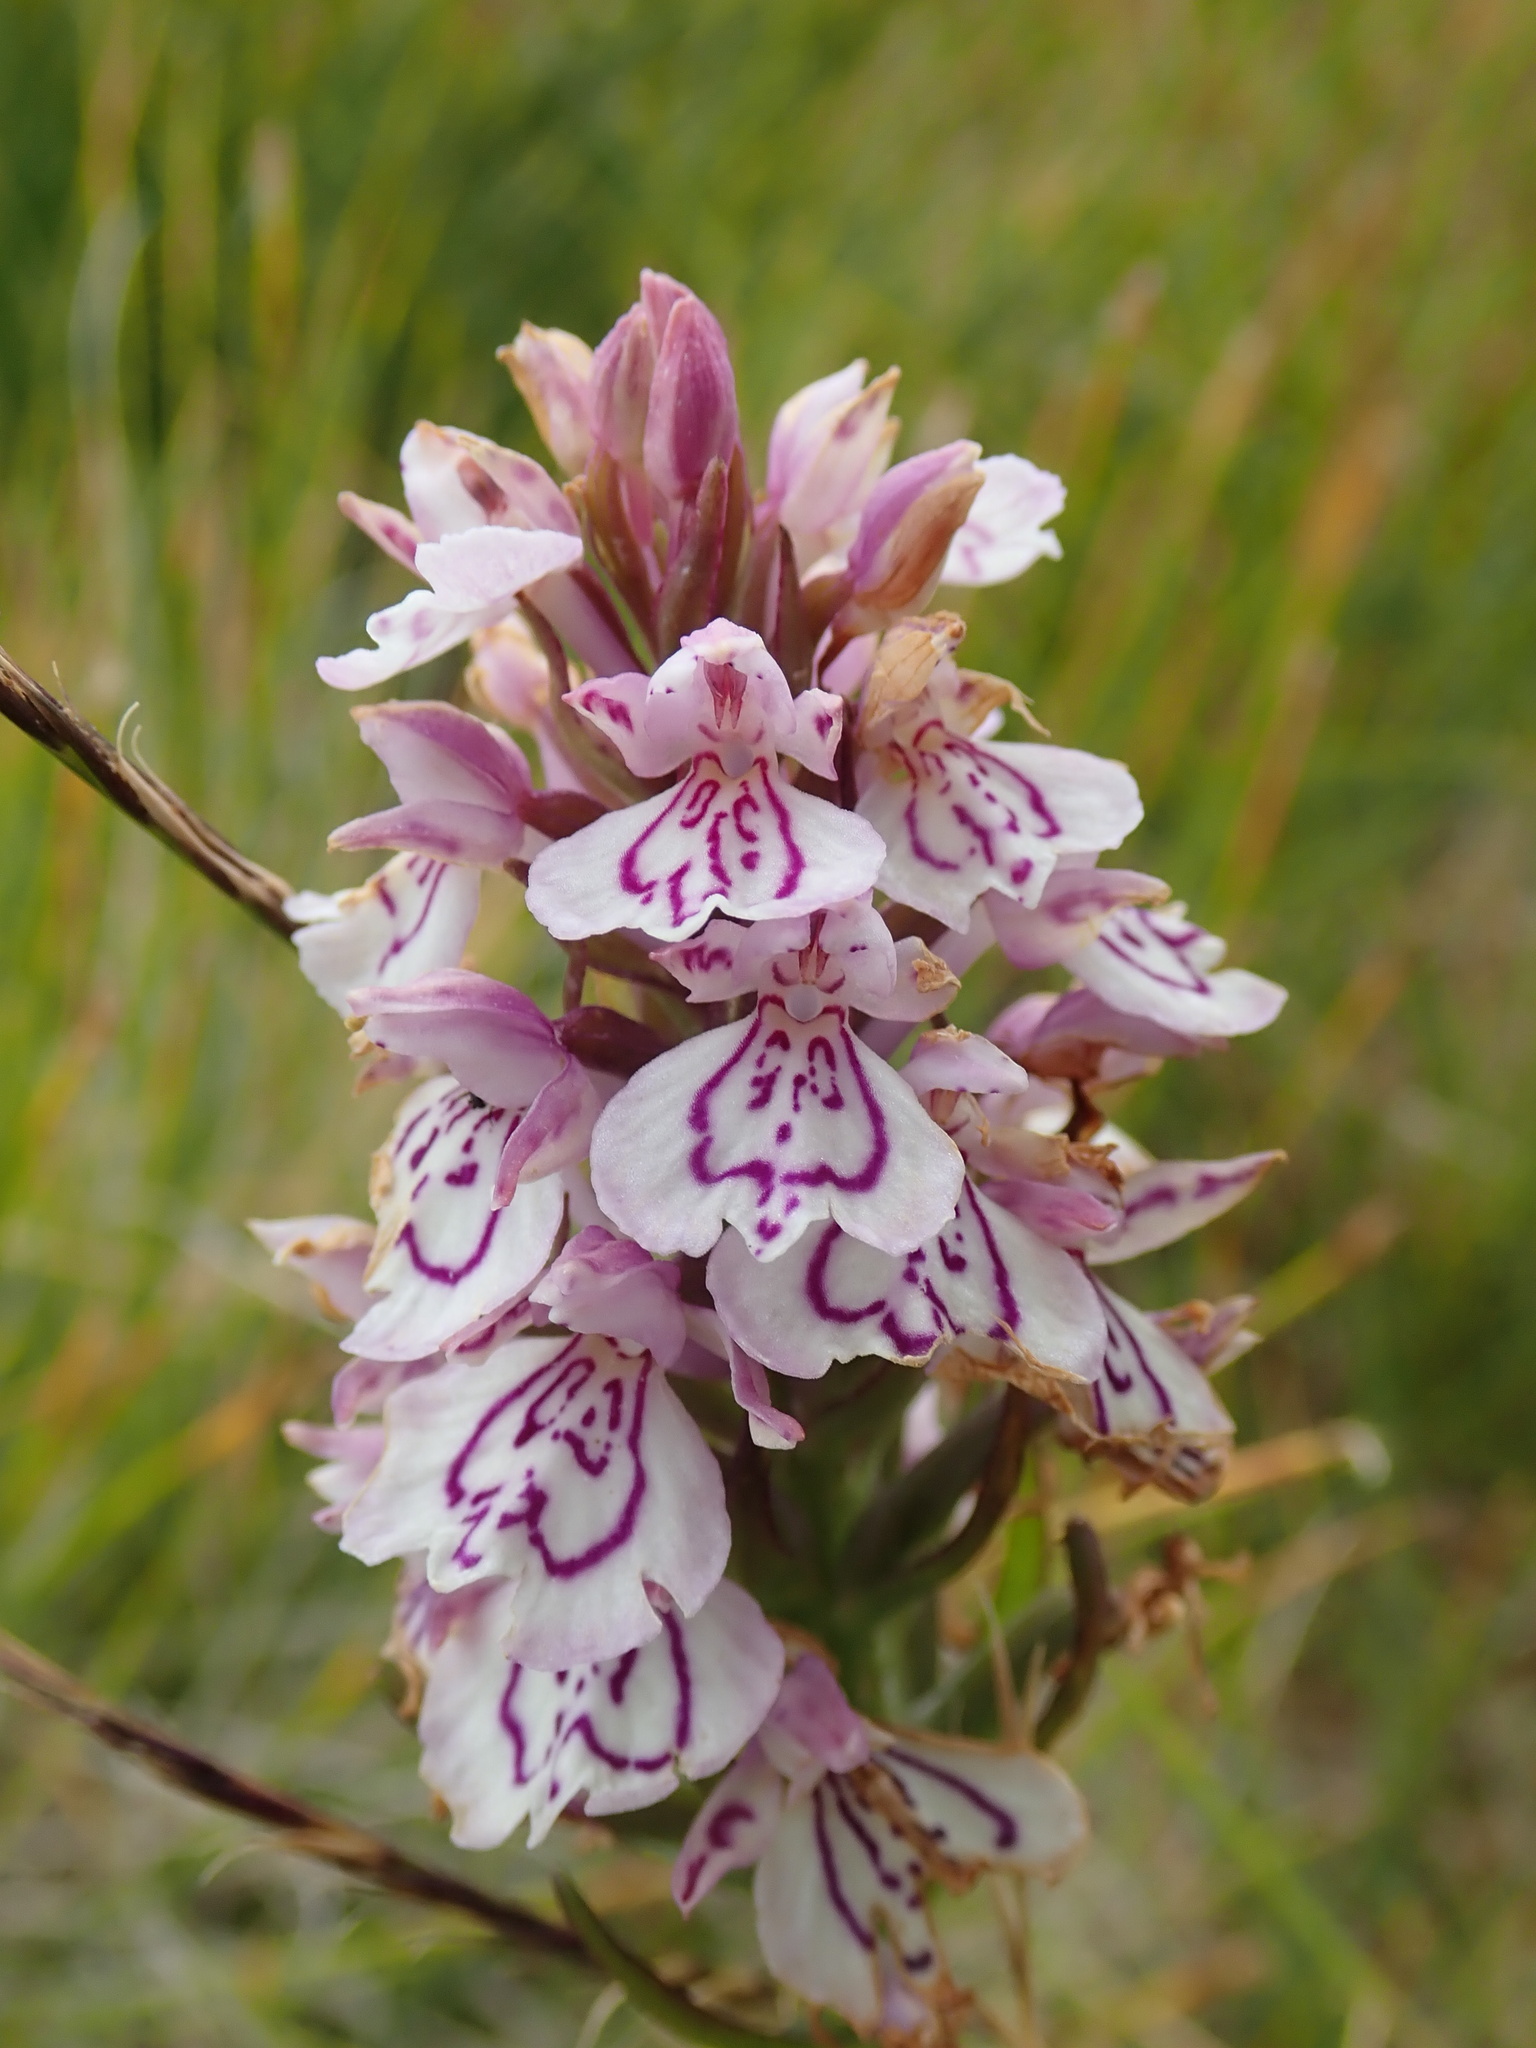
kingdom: Plantae
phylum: Tracheophyta
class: Liliopsida
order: Asparagales
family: Orchidaceae
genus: Dactylorhiza
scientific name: Dactylorhiza maculata
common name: Heath spotted-orchid
